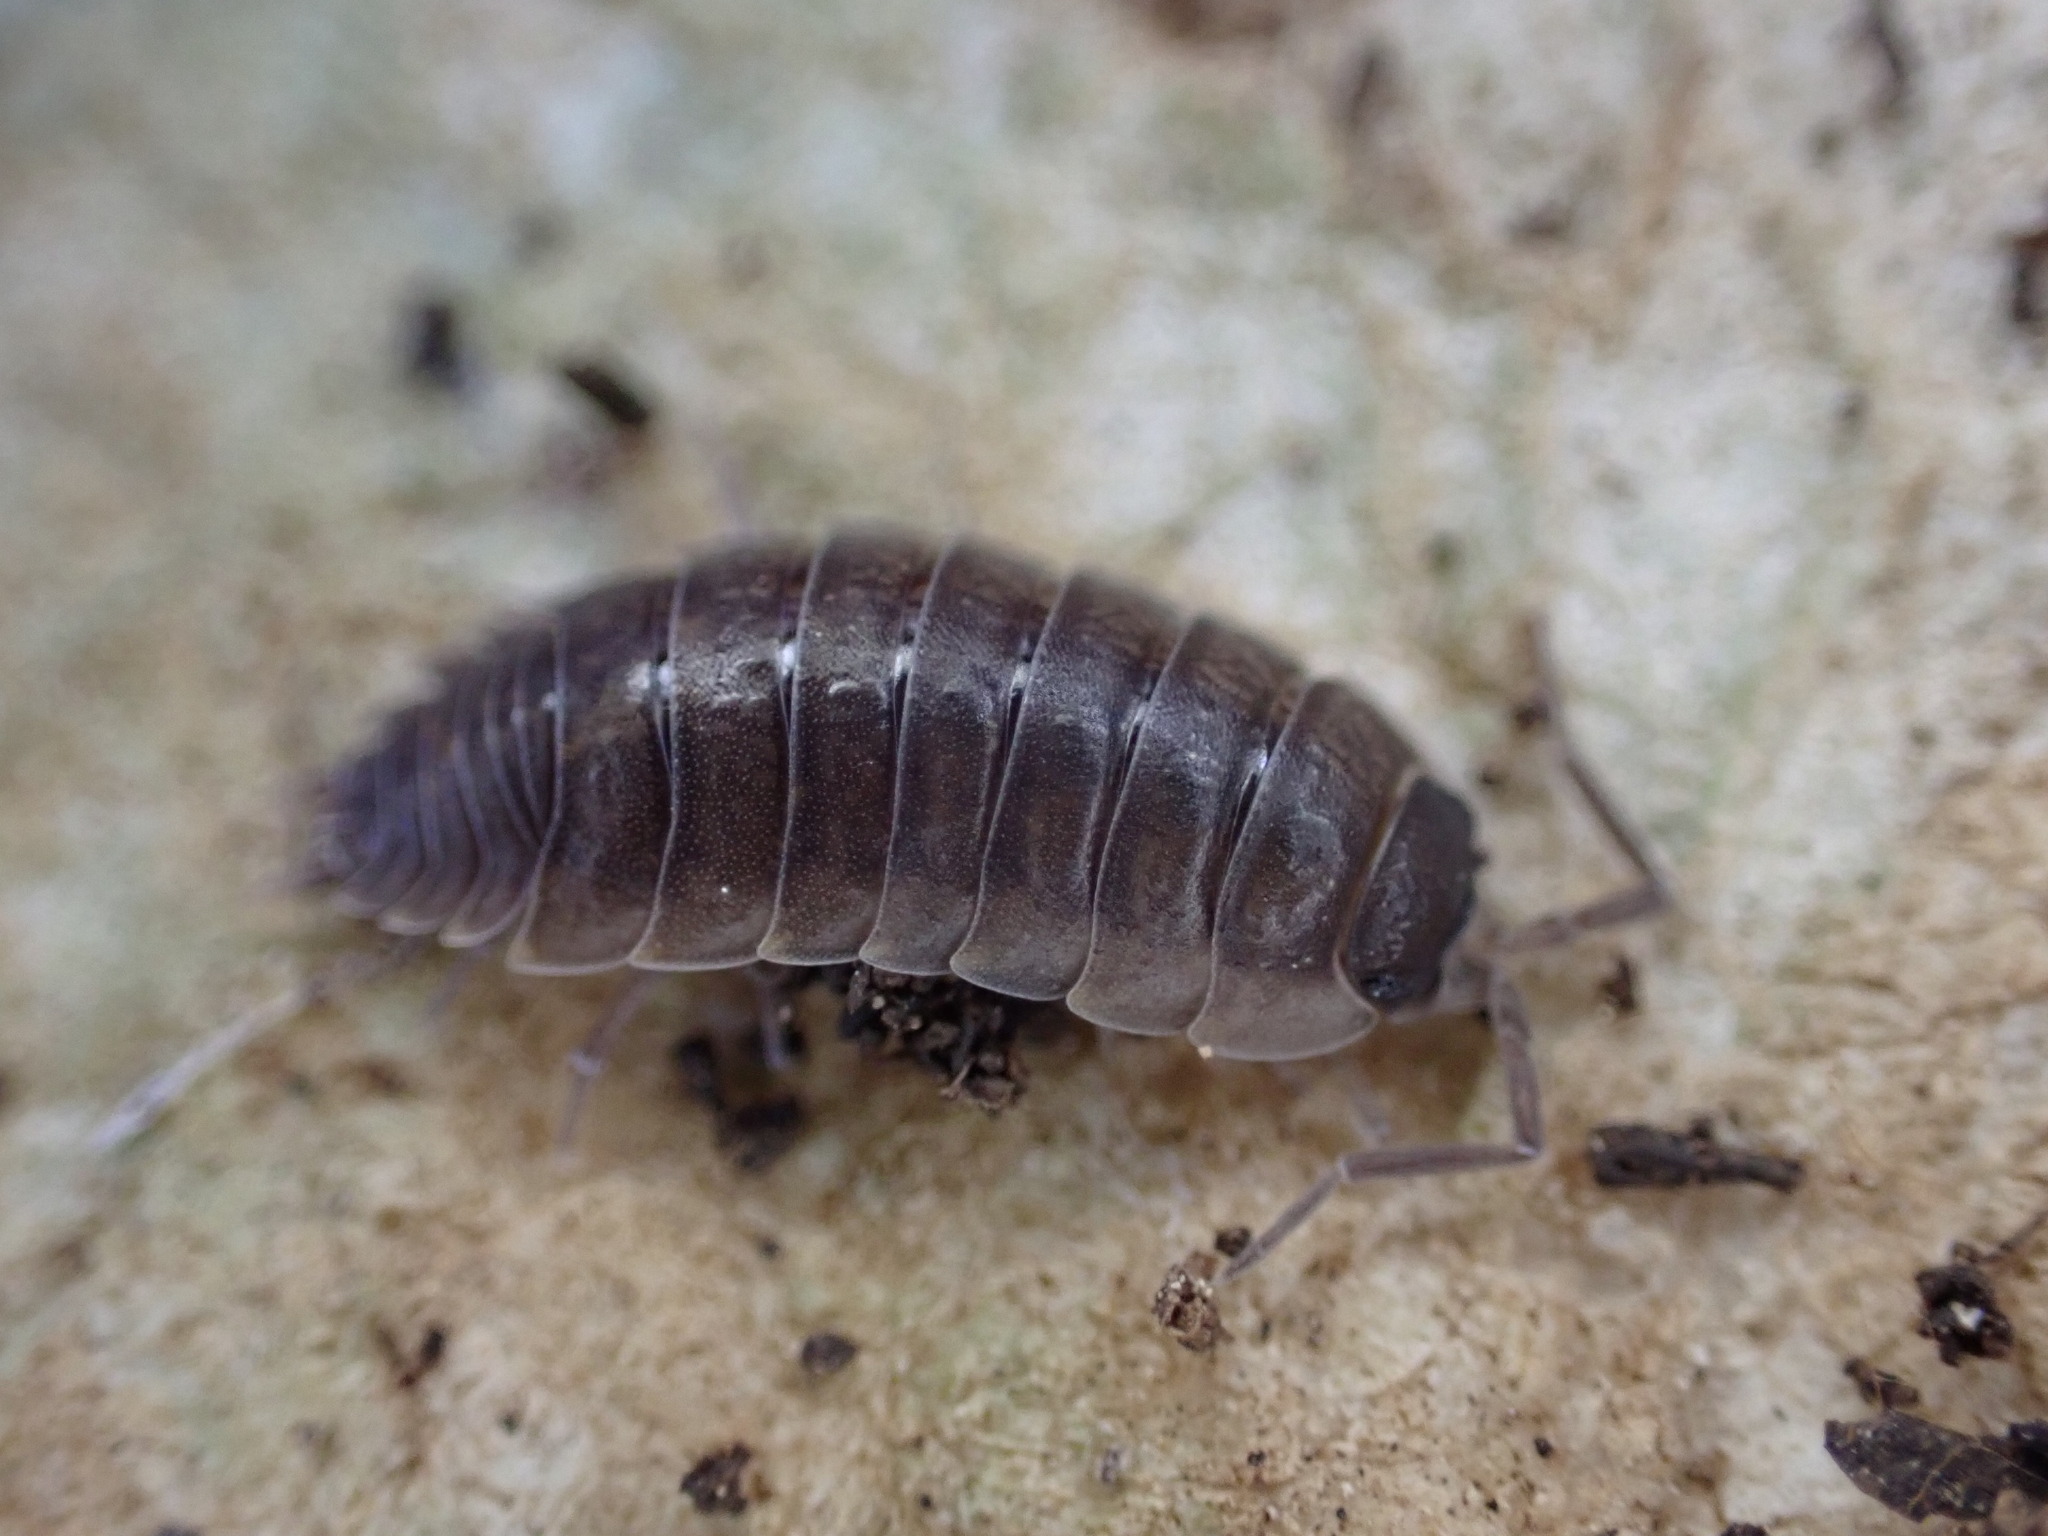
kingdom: Animalia
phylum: Arthropoda
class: Malacostraca
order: Isopoda
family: Porcellionidae
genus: Porcellio
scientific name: Porcellio orarum
